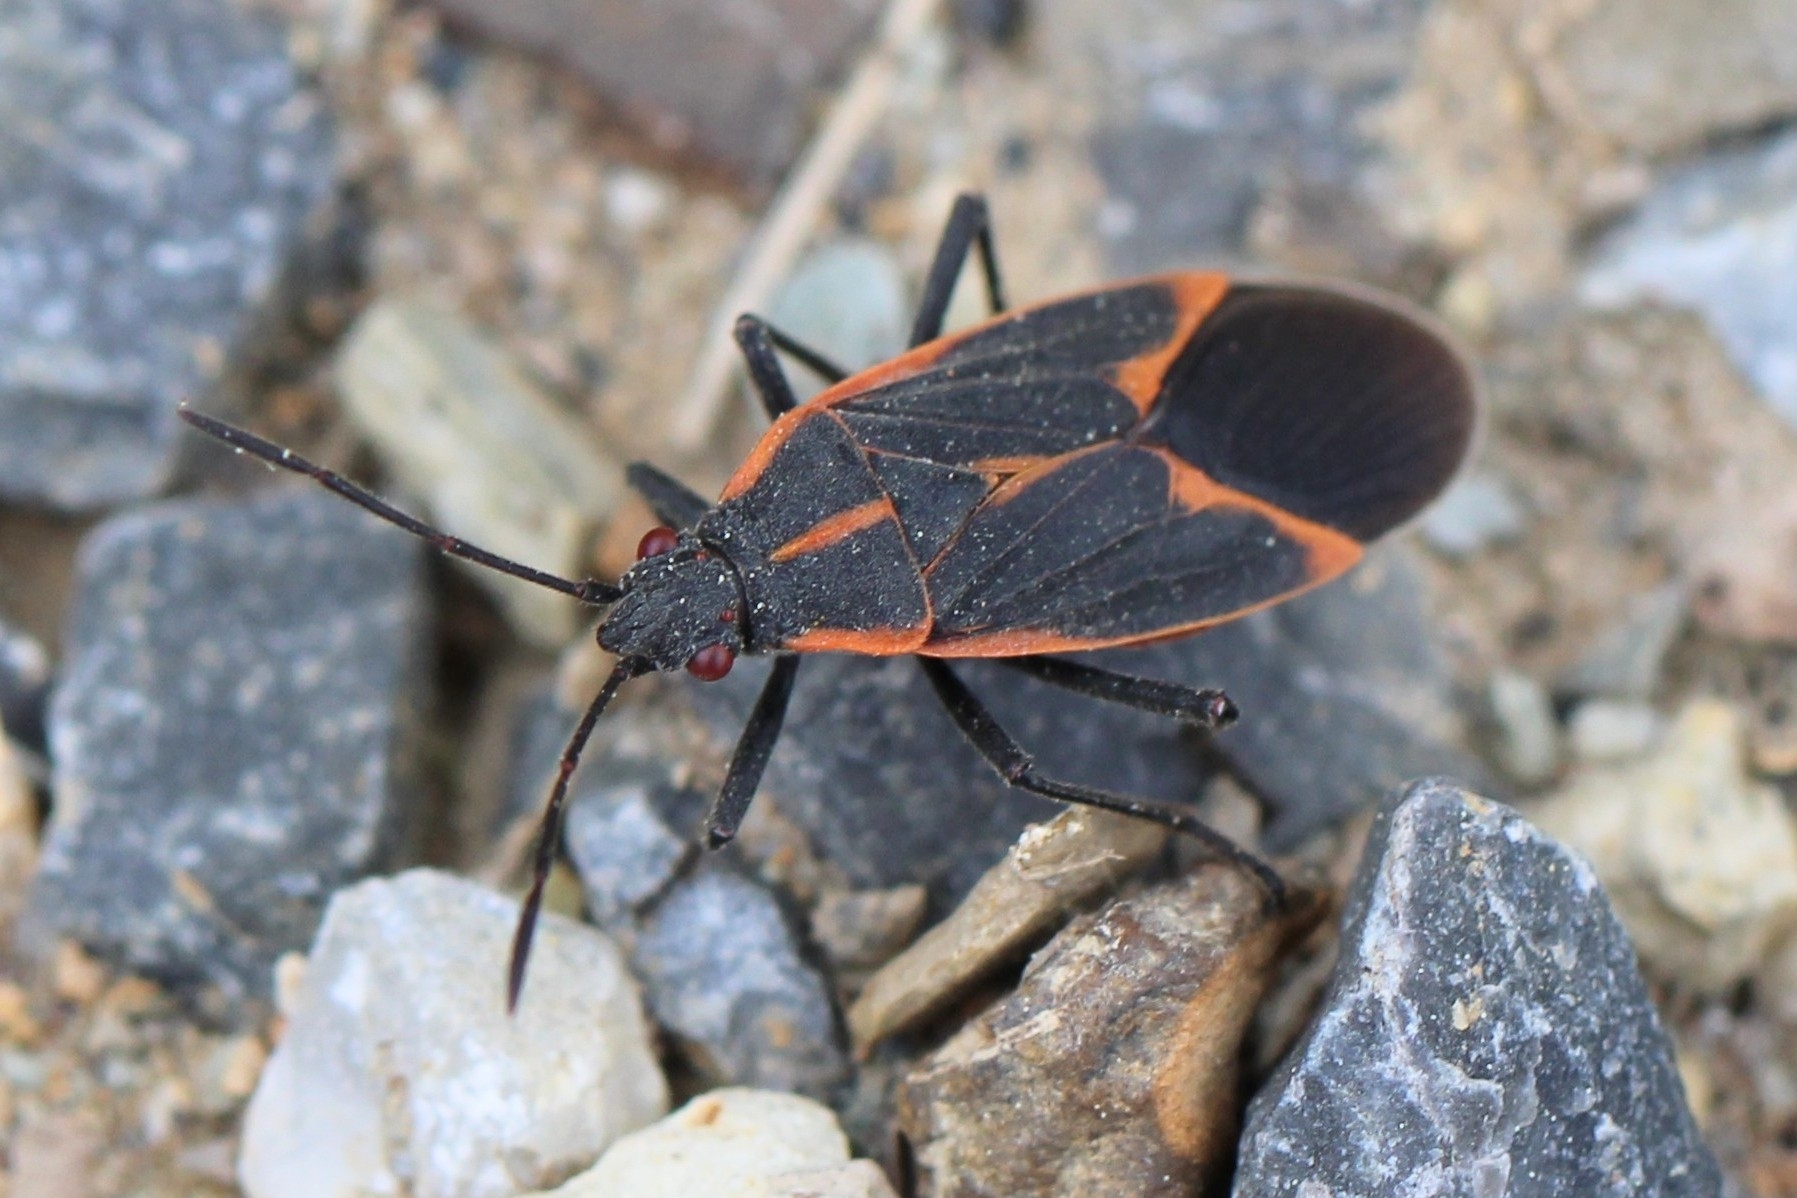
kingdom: Animalia
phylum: Arthropoda
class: Insecta
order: Hemiptera
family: Rhopalidae
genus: Boisea
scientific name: Boisea trivittata
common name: Boxelder bug
